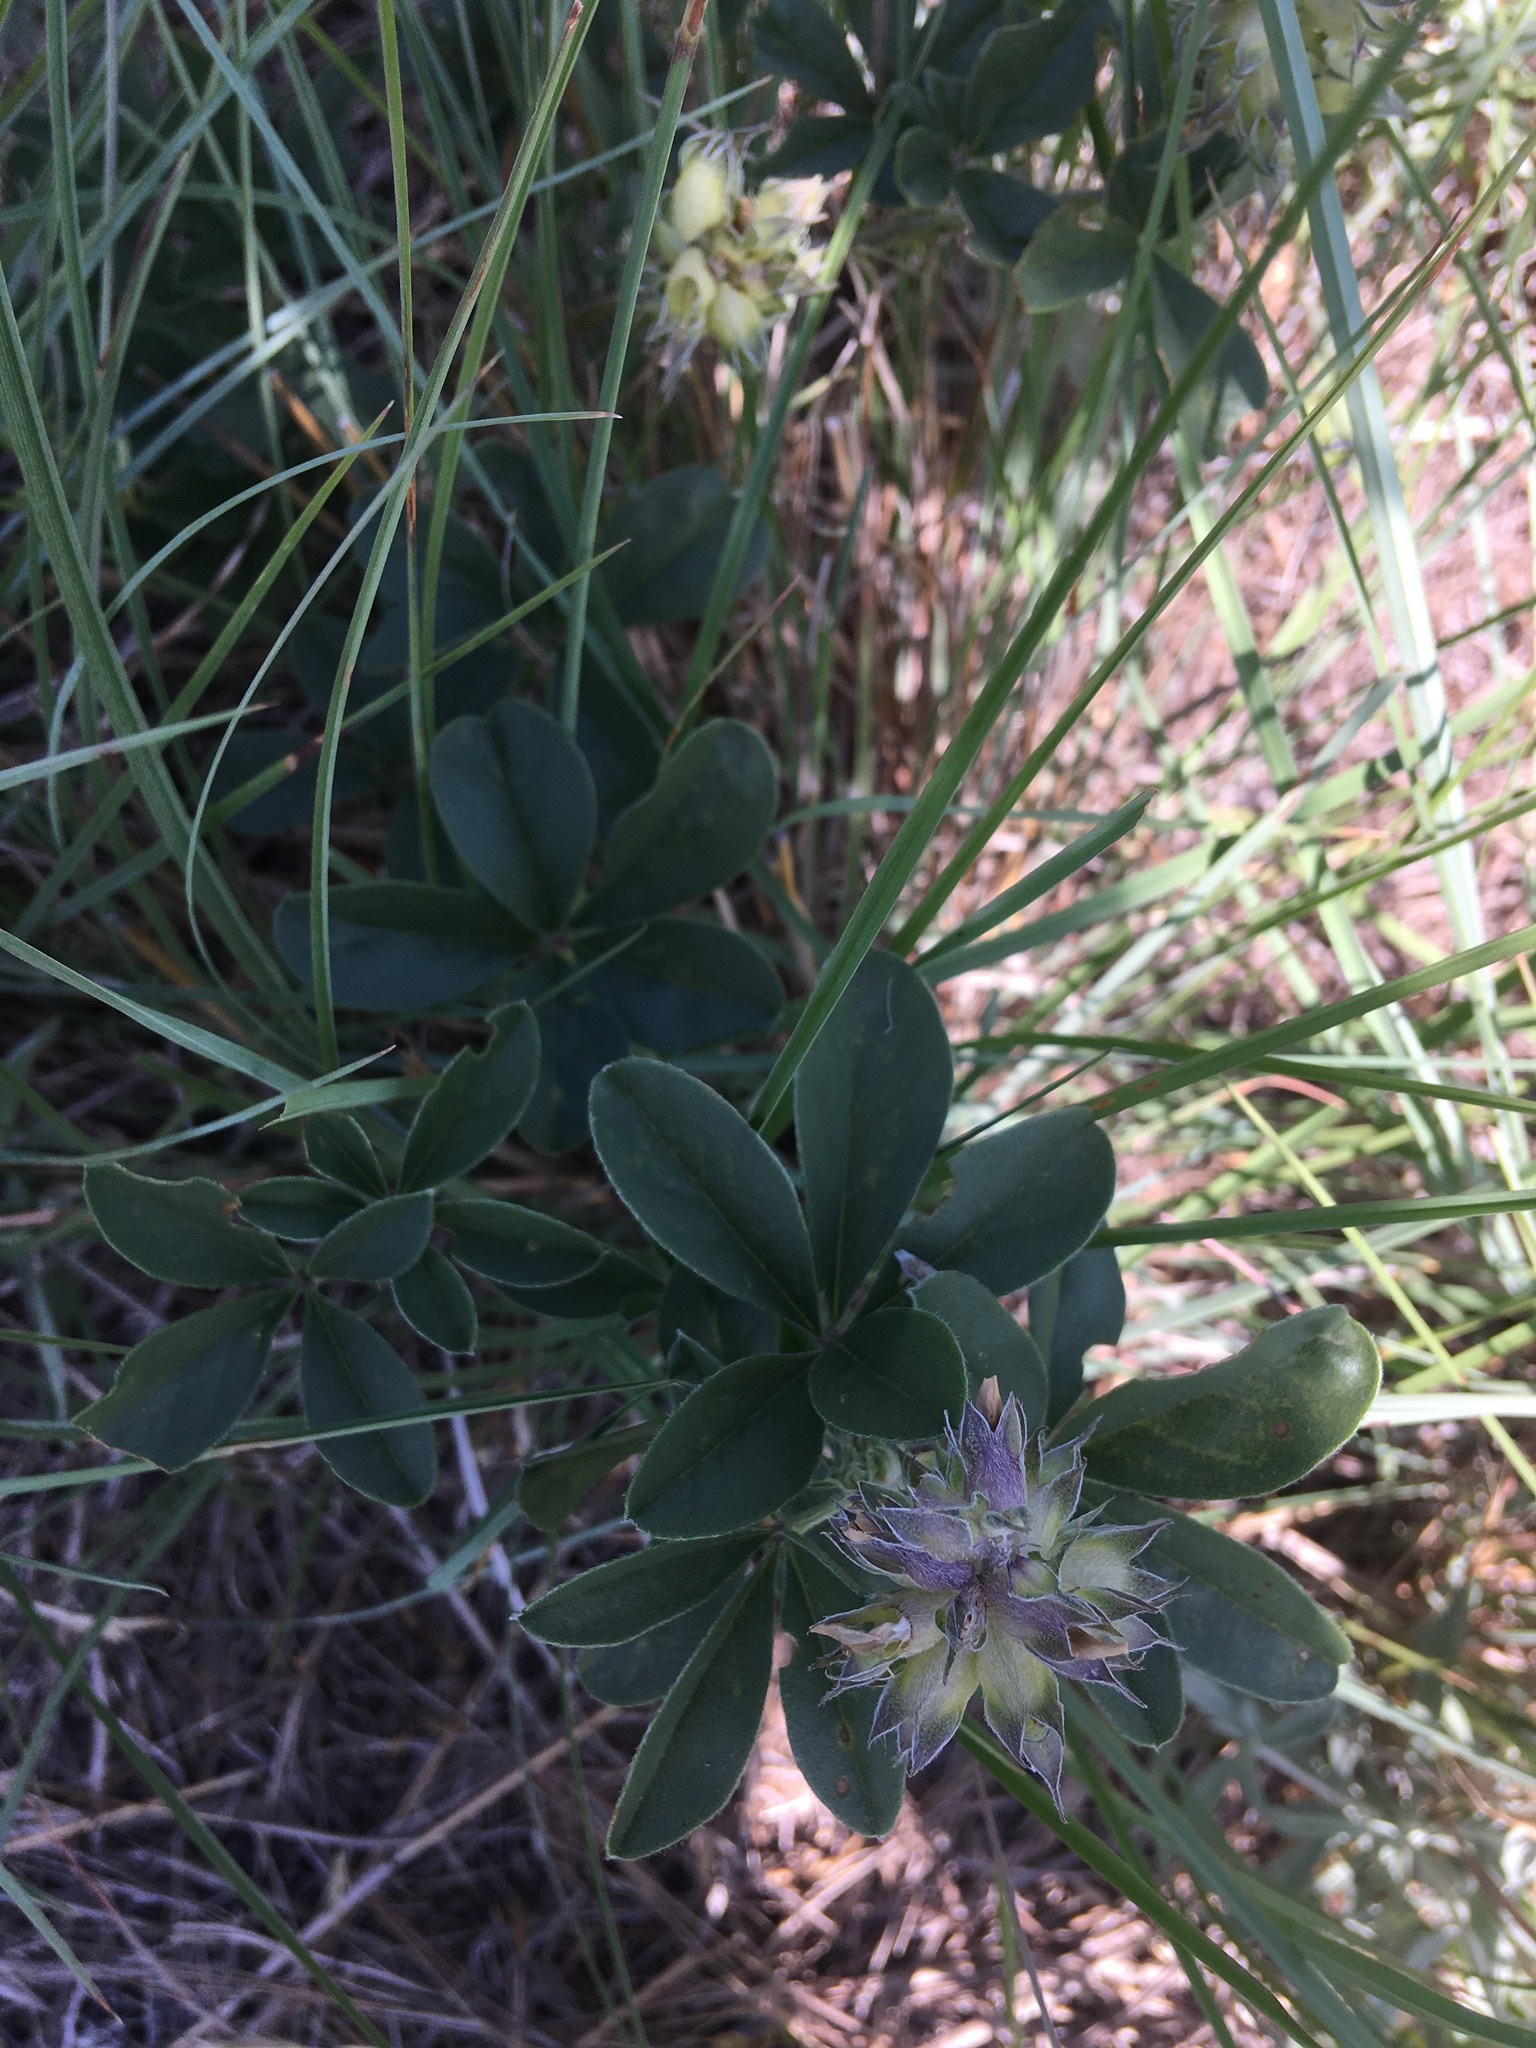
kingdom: Plantae
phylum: Tracheophyta
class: Magnoliopsida
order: Fabales
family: Fabaceae
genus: Pediomelum
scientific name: Pediomelum cuspidatum
